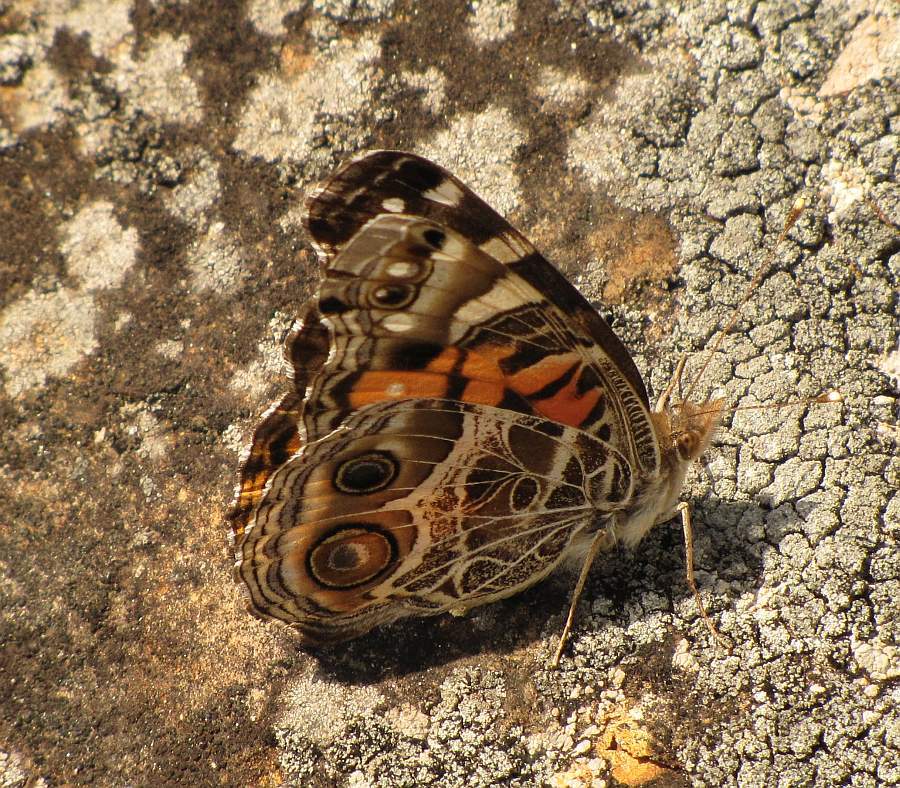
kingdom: Animalia
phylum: Arthropoda
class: Insecta
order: Lepidoptera
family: Nymphalidae
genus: Vanessa
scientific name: Vanessa virginiensis
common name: American lady
